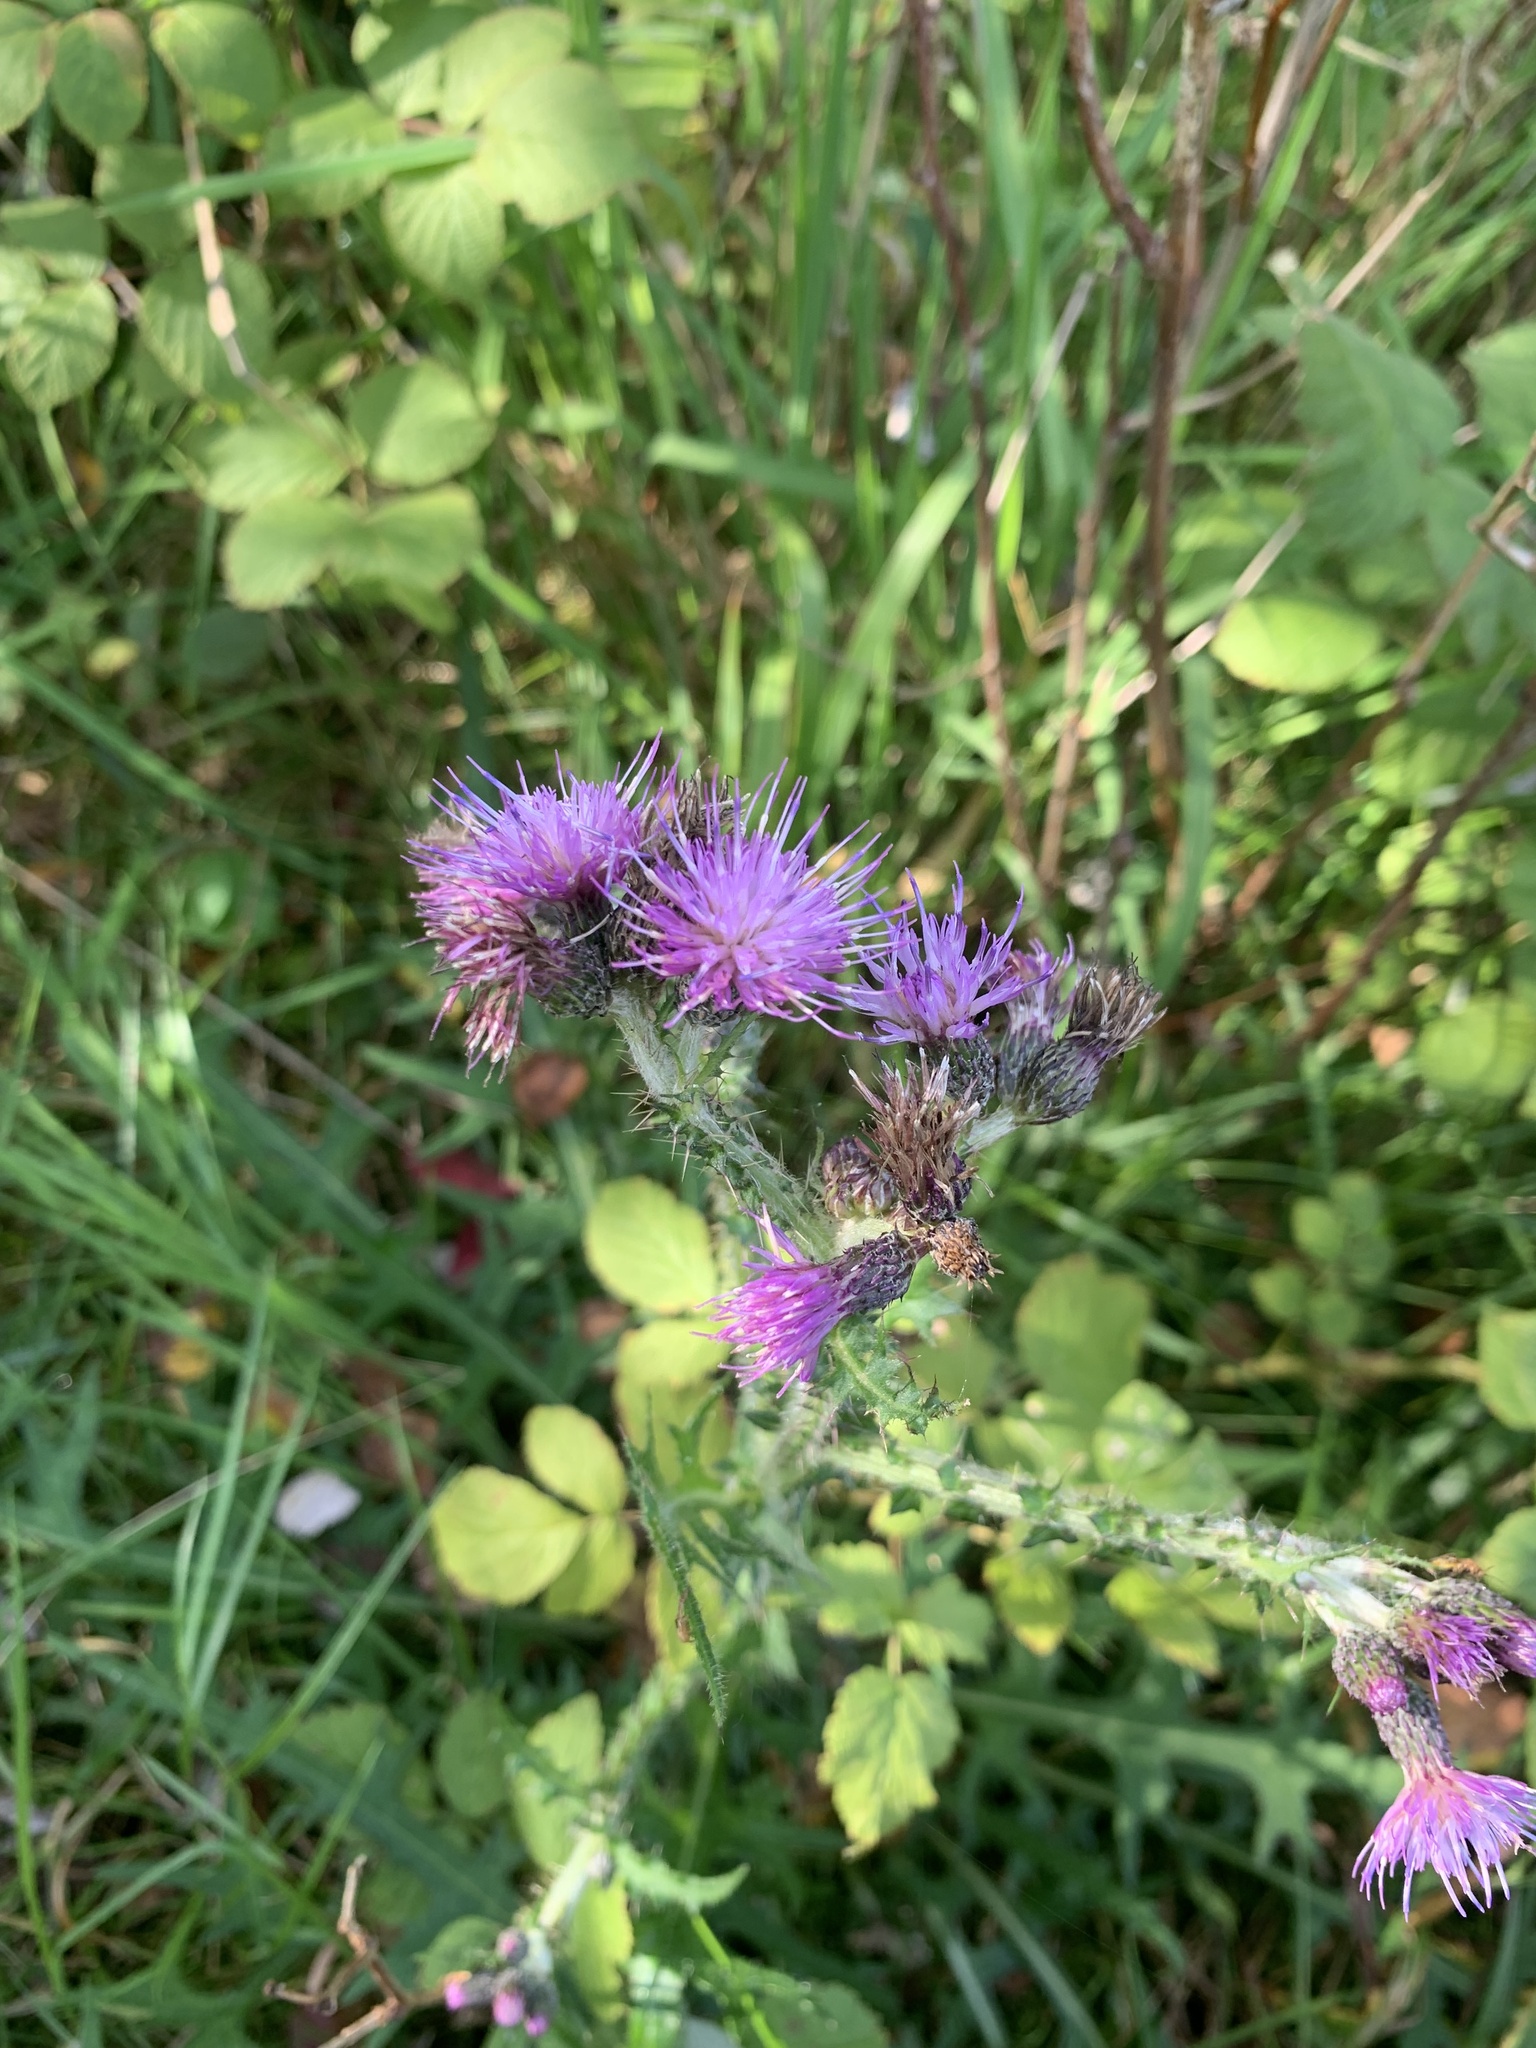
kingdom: Plantae
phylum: Tracheophyta
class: Magnoliopsida
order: Asterales
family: Asteraceae
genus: Cirsium
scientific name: Cirsium palustre
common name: Marsh thistle
